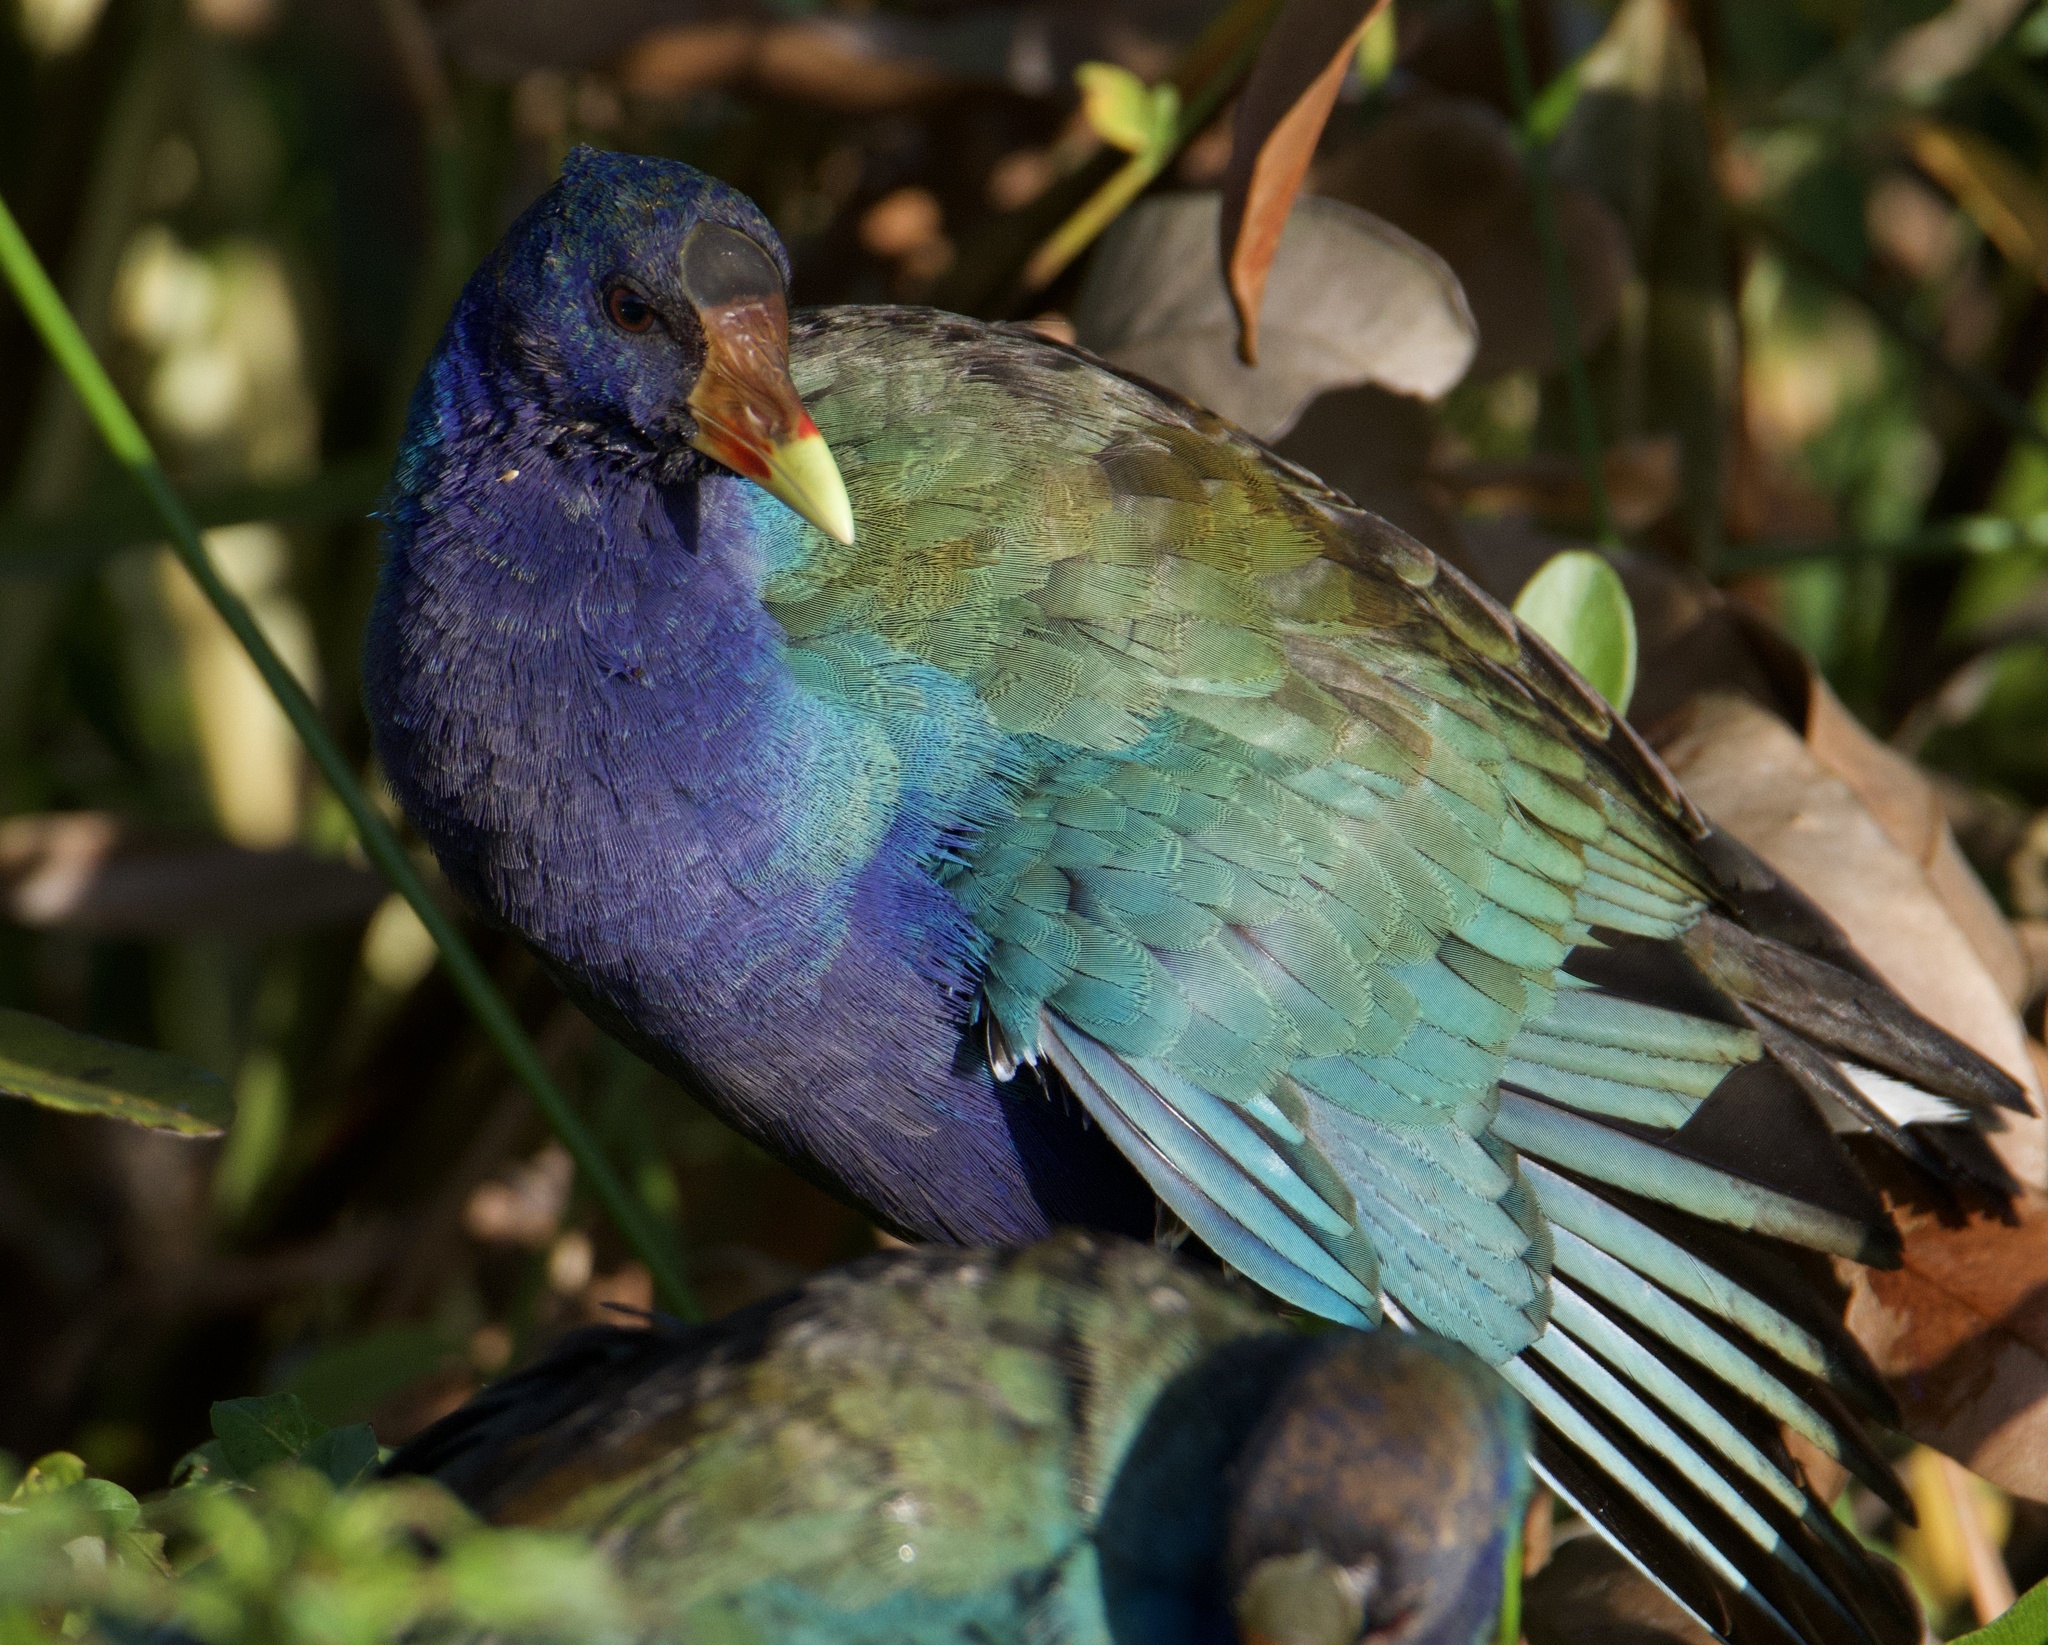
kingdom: Animalia
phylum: Chordata
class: Aves
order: Gruiformes
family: Rallidae
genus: Porphyrio
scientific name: Porphyrio martinica
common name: Purple gallinule
